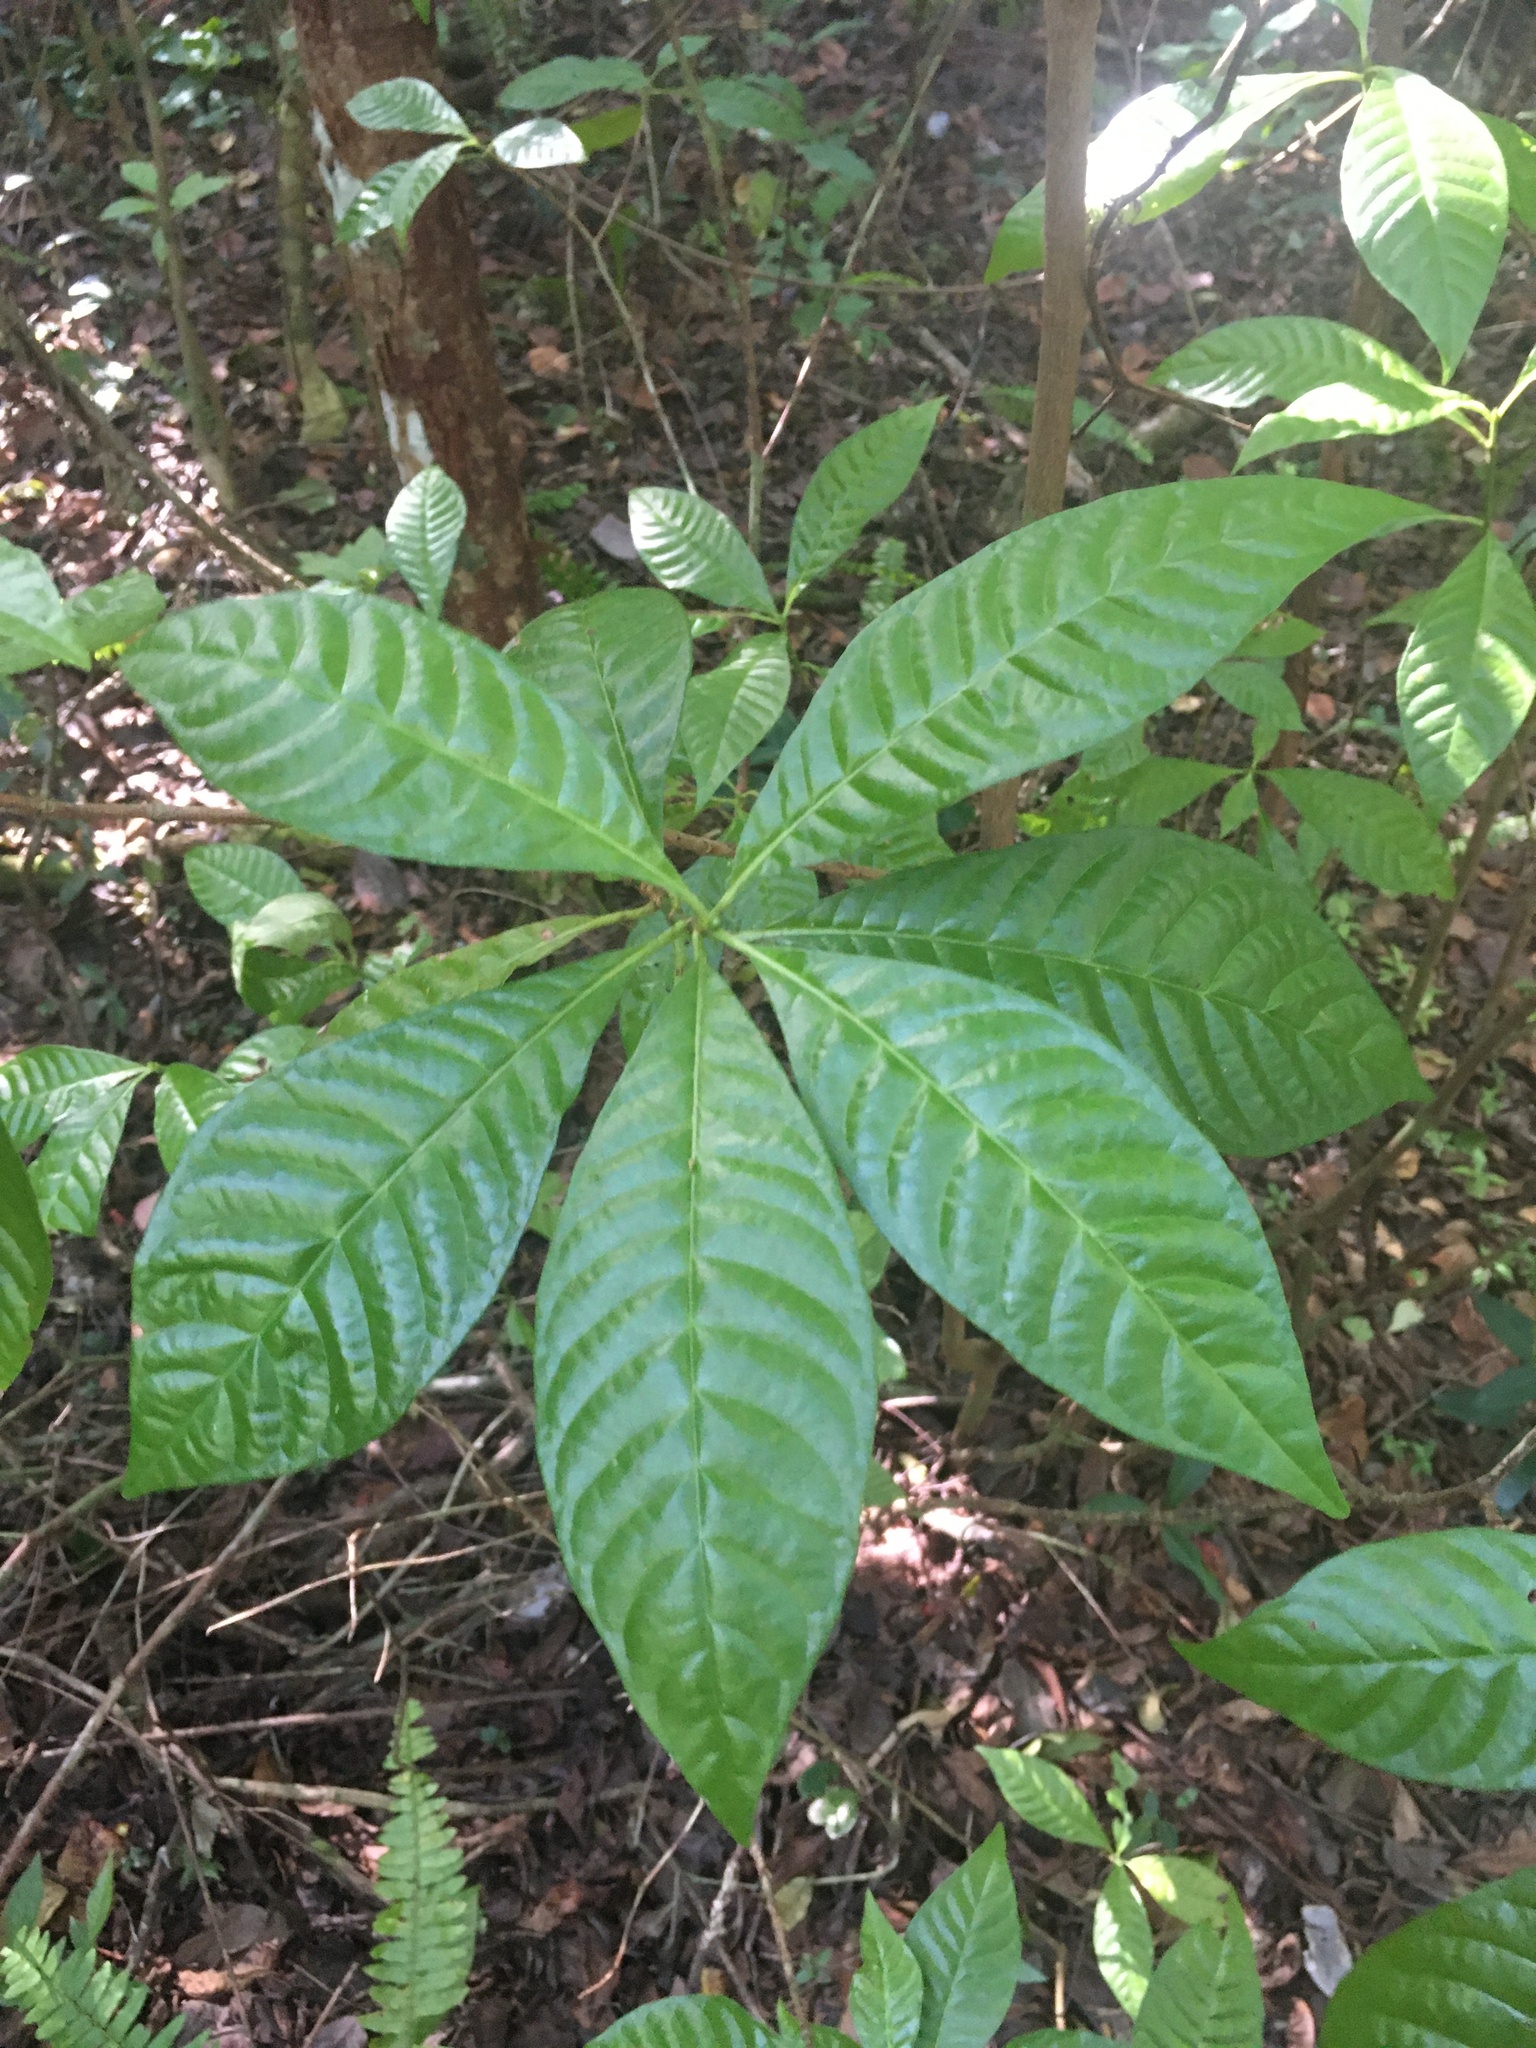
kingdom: Plantae
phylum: Tracheophyta
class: Magnoliopsida
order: Gentianales
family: Rubiaceae
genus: Psychotria
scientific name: Psychotria nervosa
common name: Bastard cankerberry
